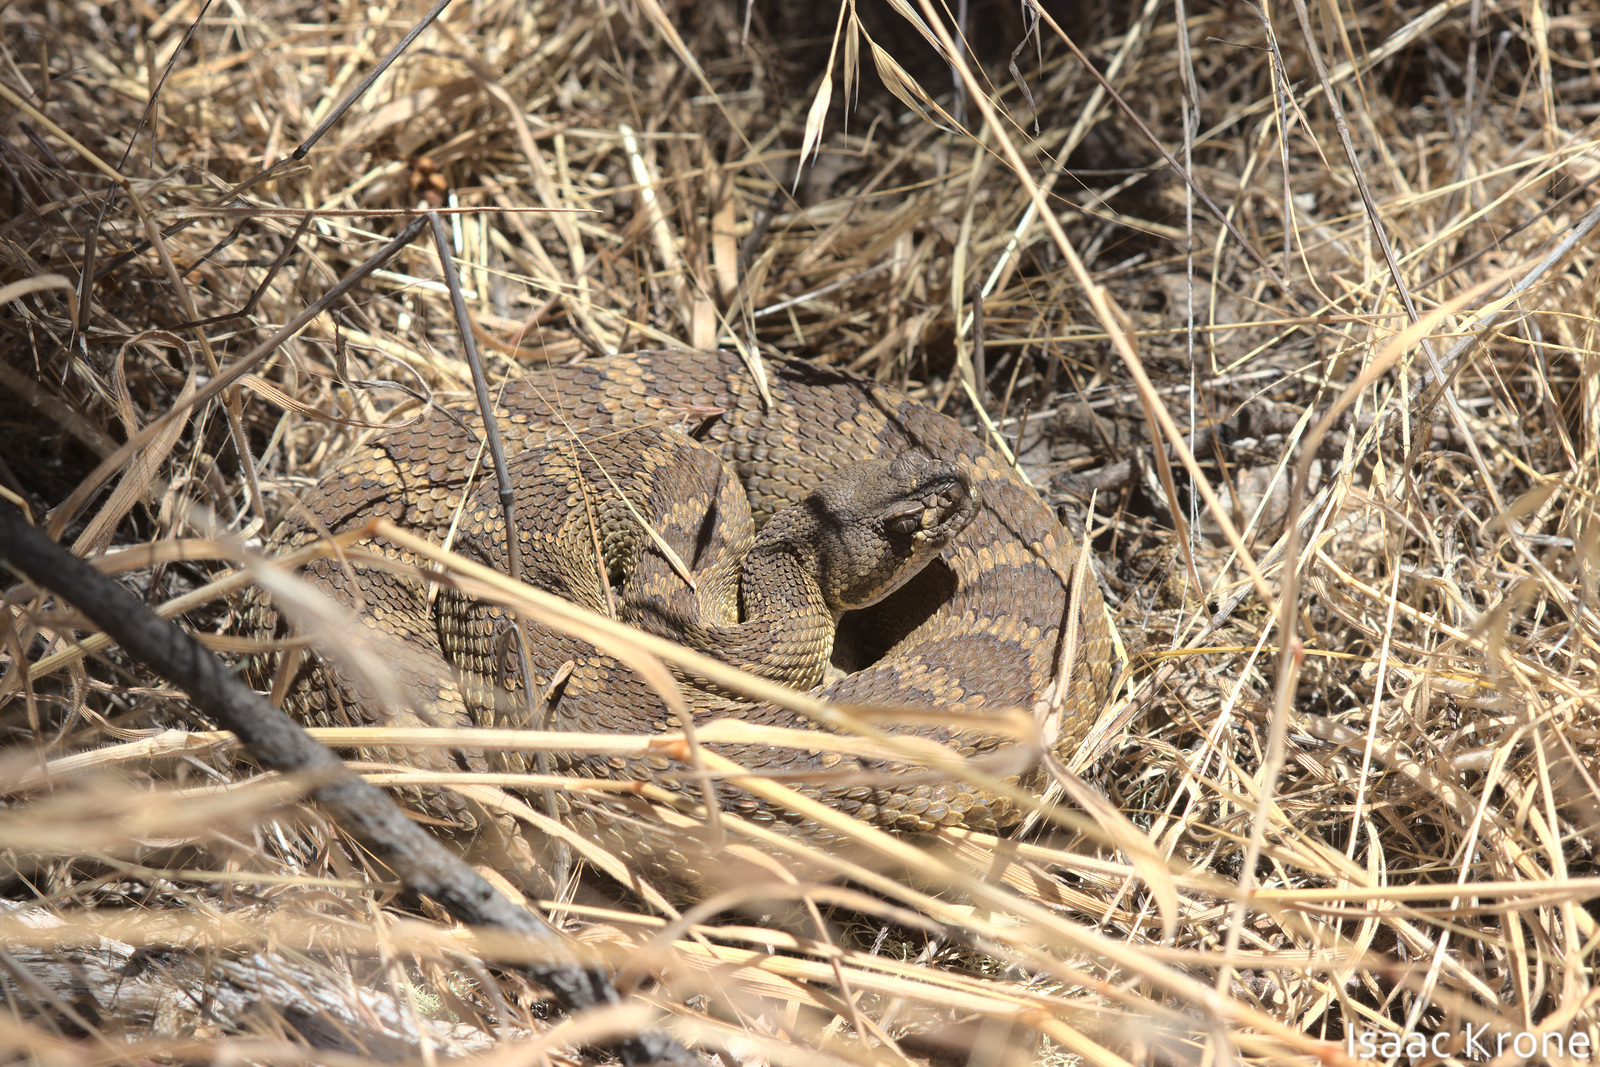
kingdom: Animalia
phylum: Chordata
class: Squamata
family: Viperidae
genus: Crotalus
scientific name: Crotalus oreganus
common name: Abyssus
